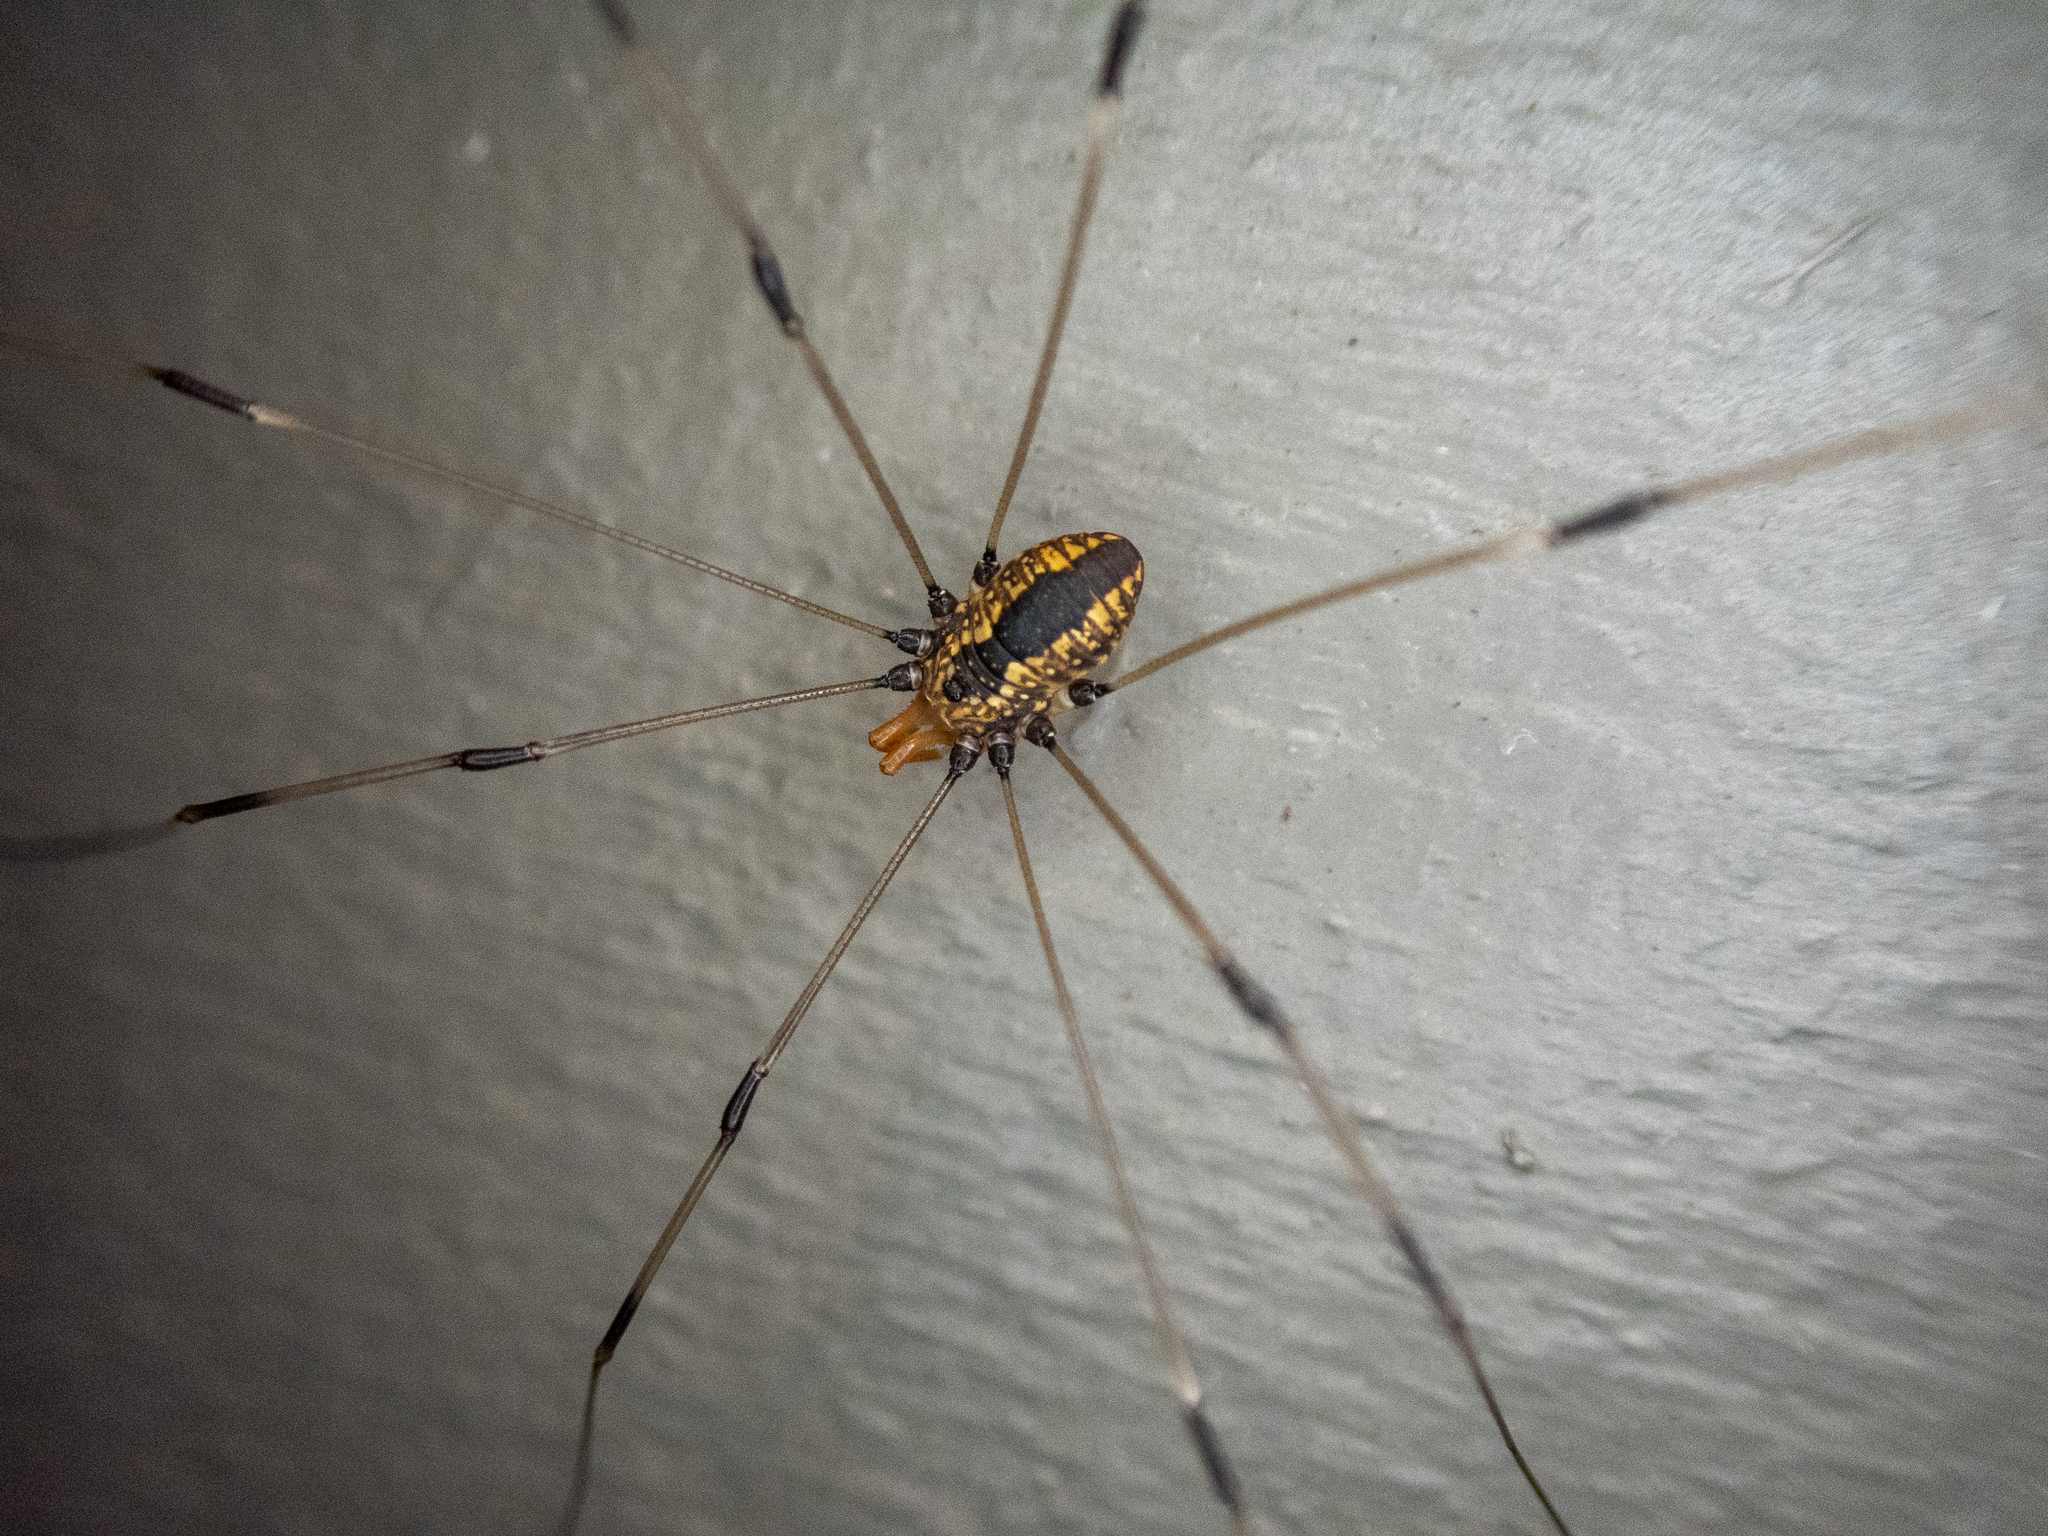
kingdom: Animalia
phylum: Arthropoda
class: Arachnida
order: Opiliones
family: Sclerosomatidae
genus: Leiobunum
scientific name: Leiobunum vittatum
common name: Eastern harvestman
